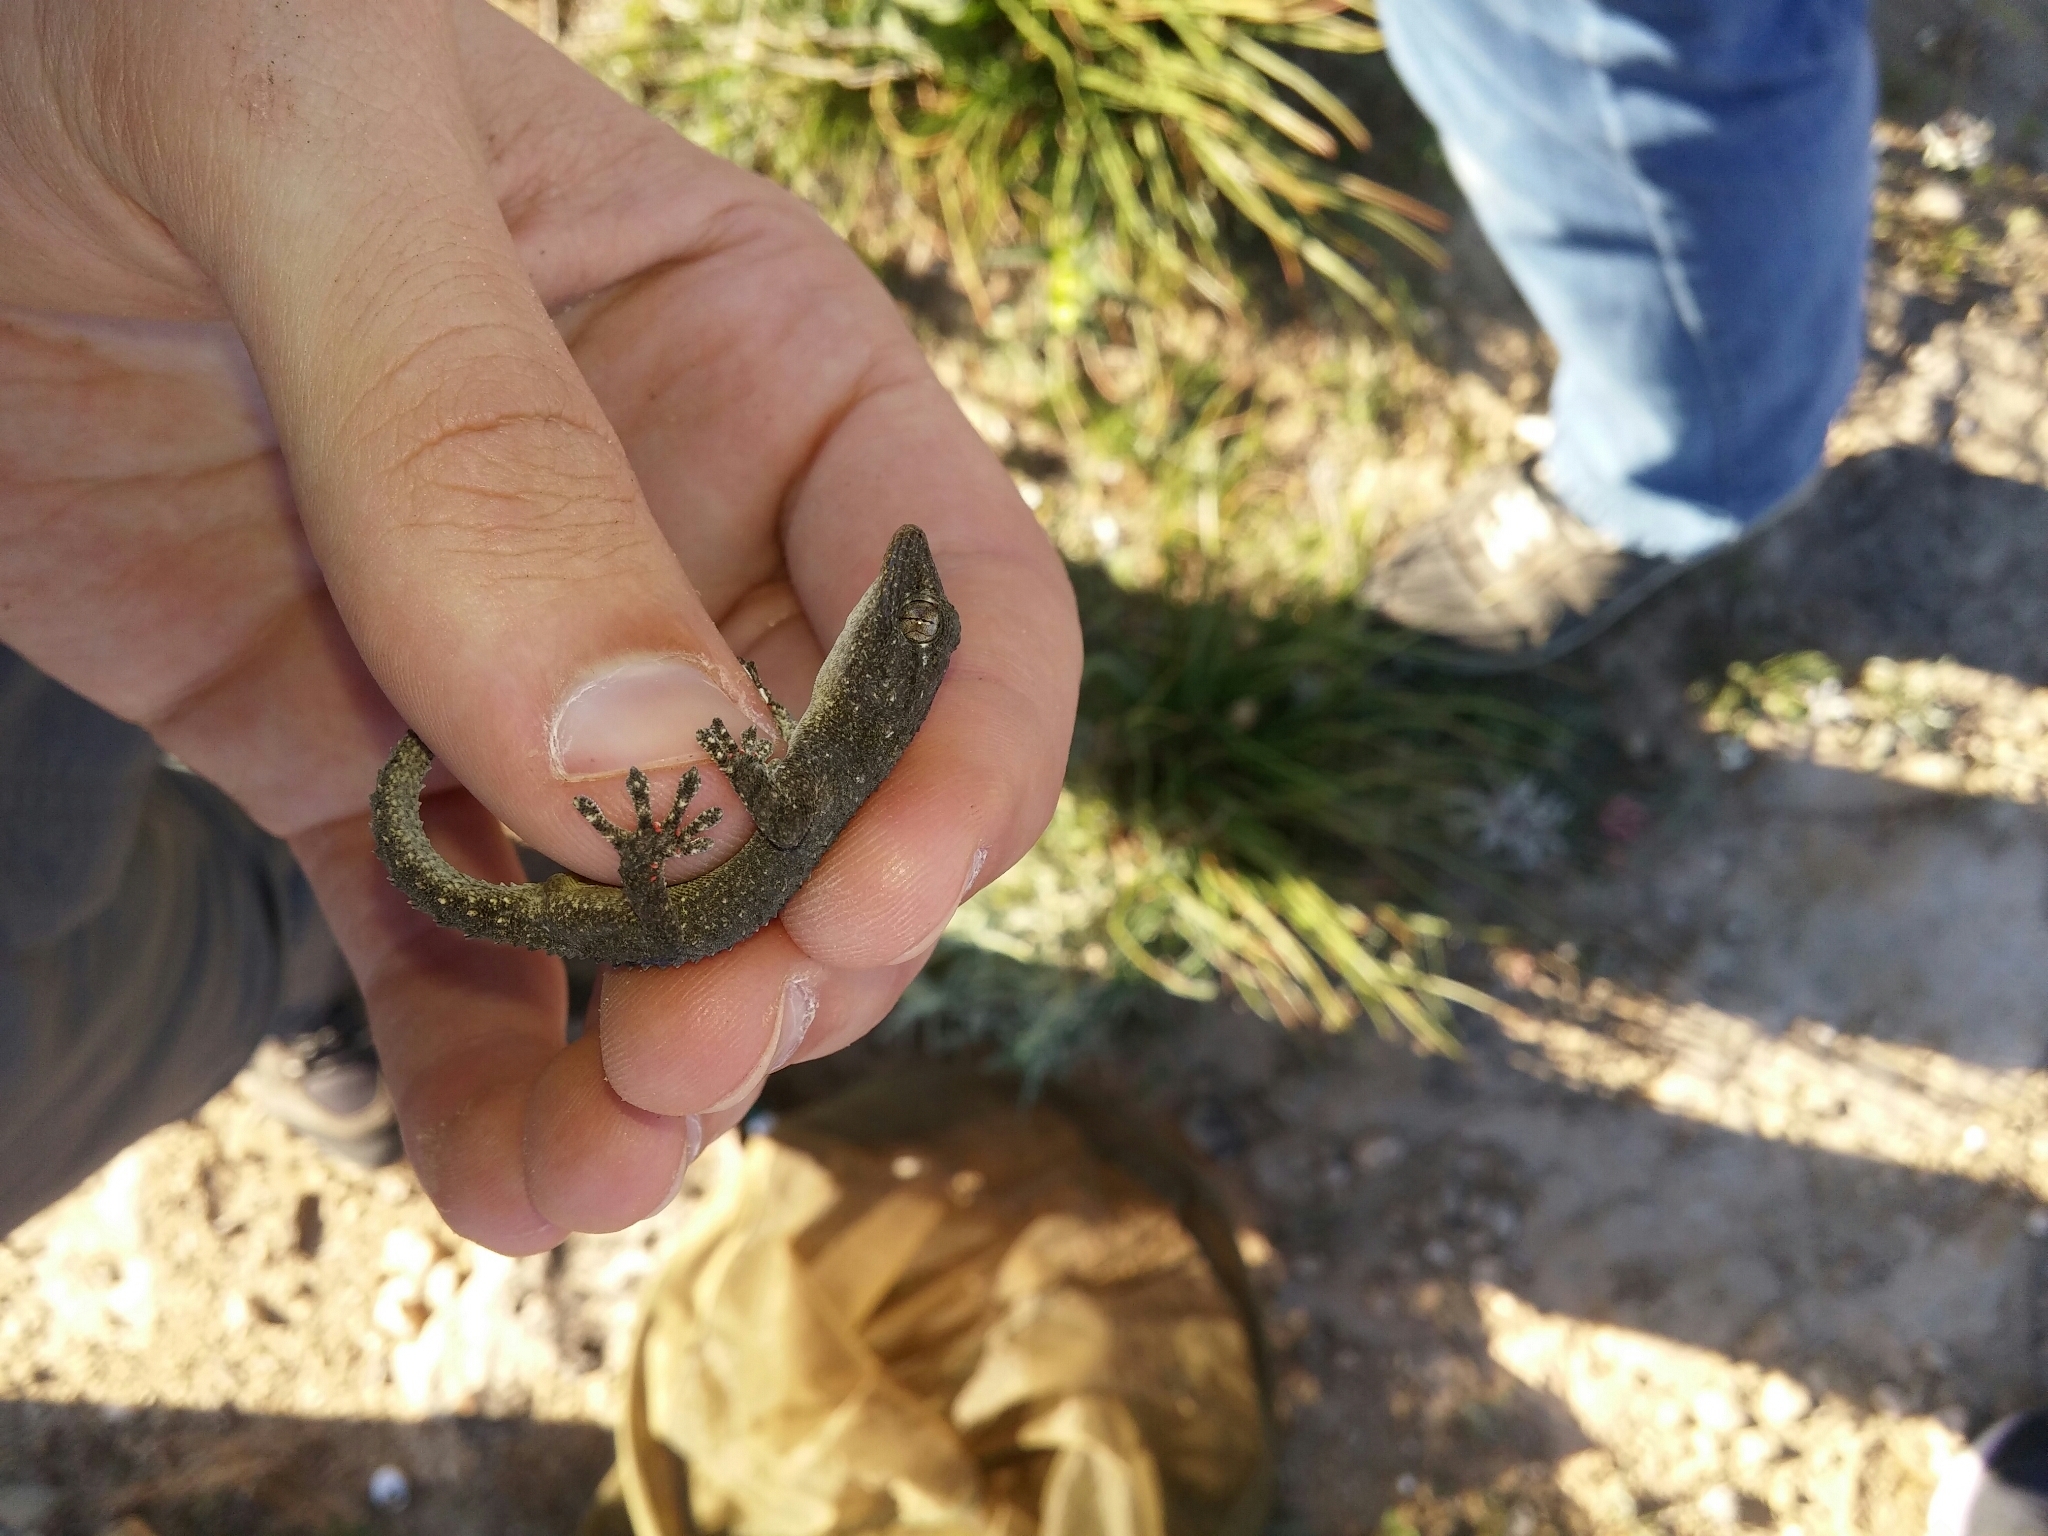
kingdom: Animalia
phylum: Chordata
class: Squamata
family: Phyllodactylidae
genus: Tarentola
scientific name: Tarentola mauritanica
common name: Moorish gecko
